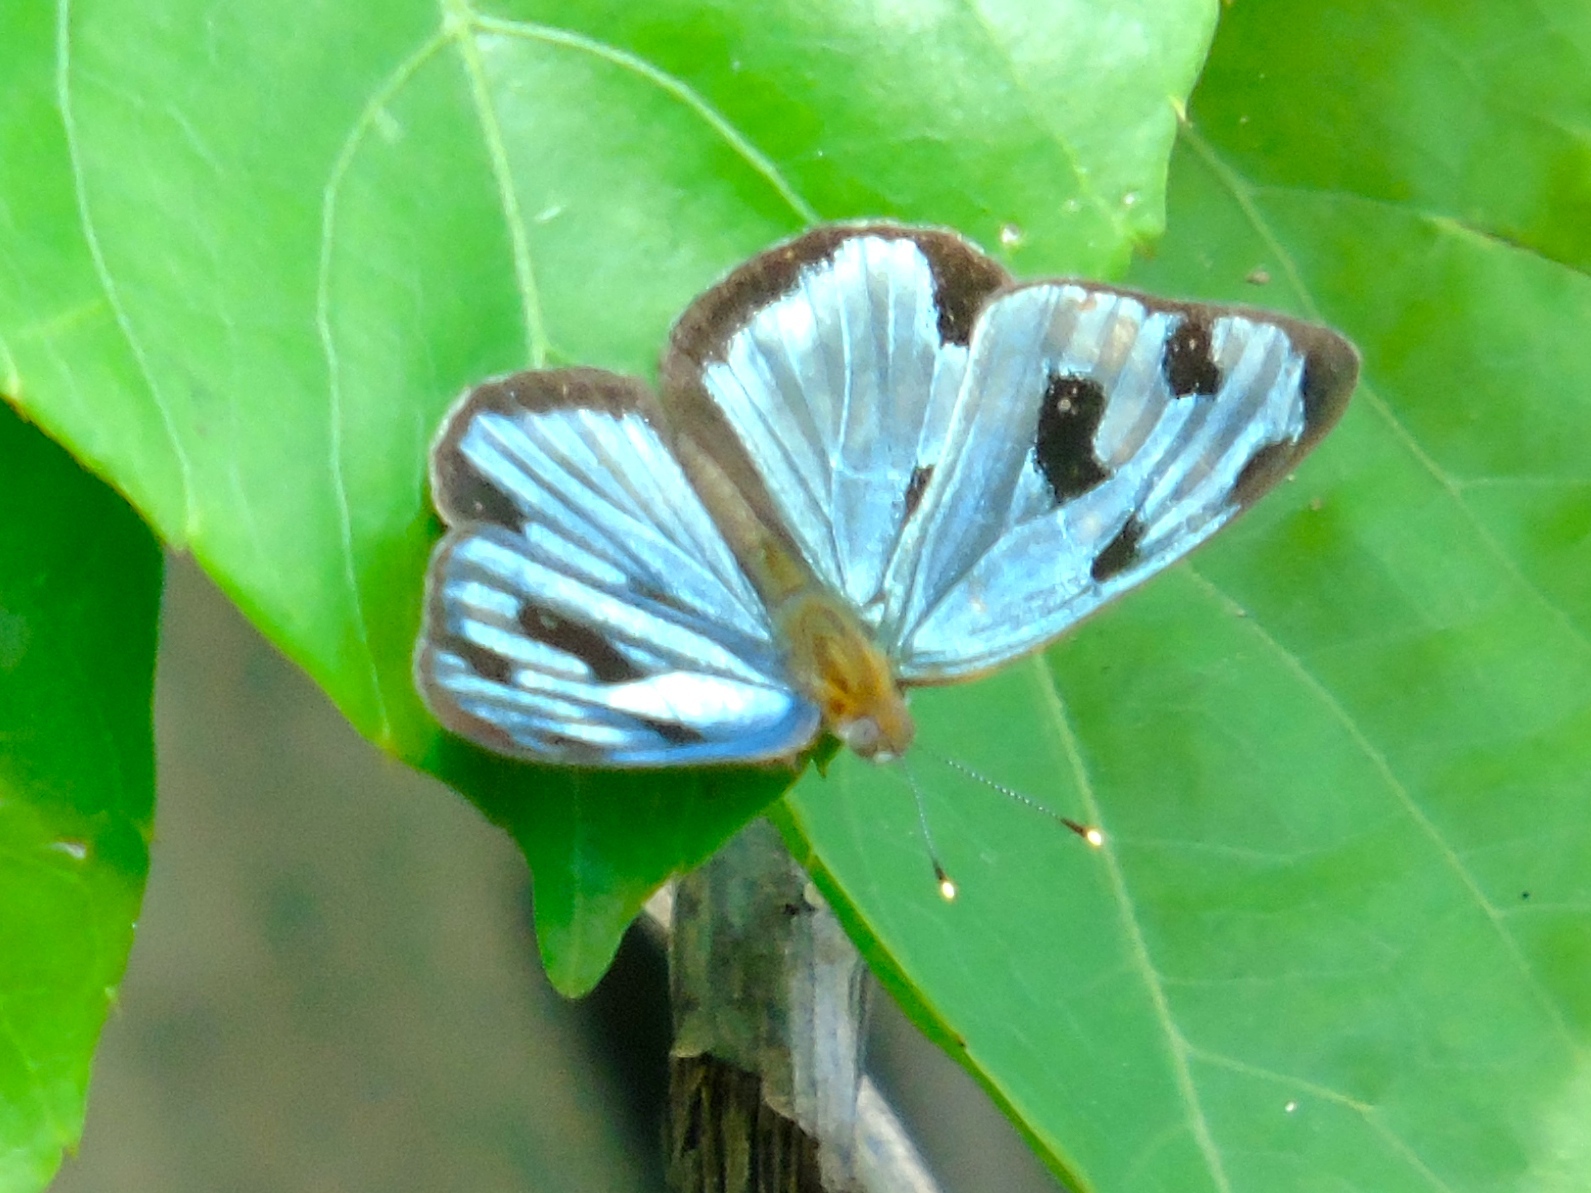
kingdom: Animalia
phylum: Arthropoda
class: Insecta
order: Lepidoptera
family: Nymphalidae
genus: Dynamine
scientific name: Dynamine mylitta
